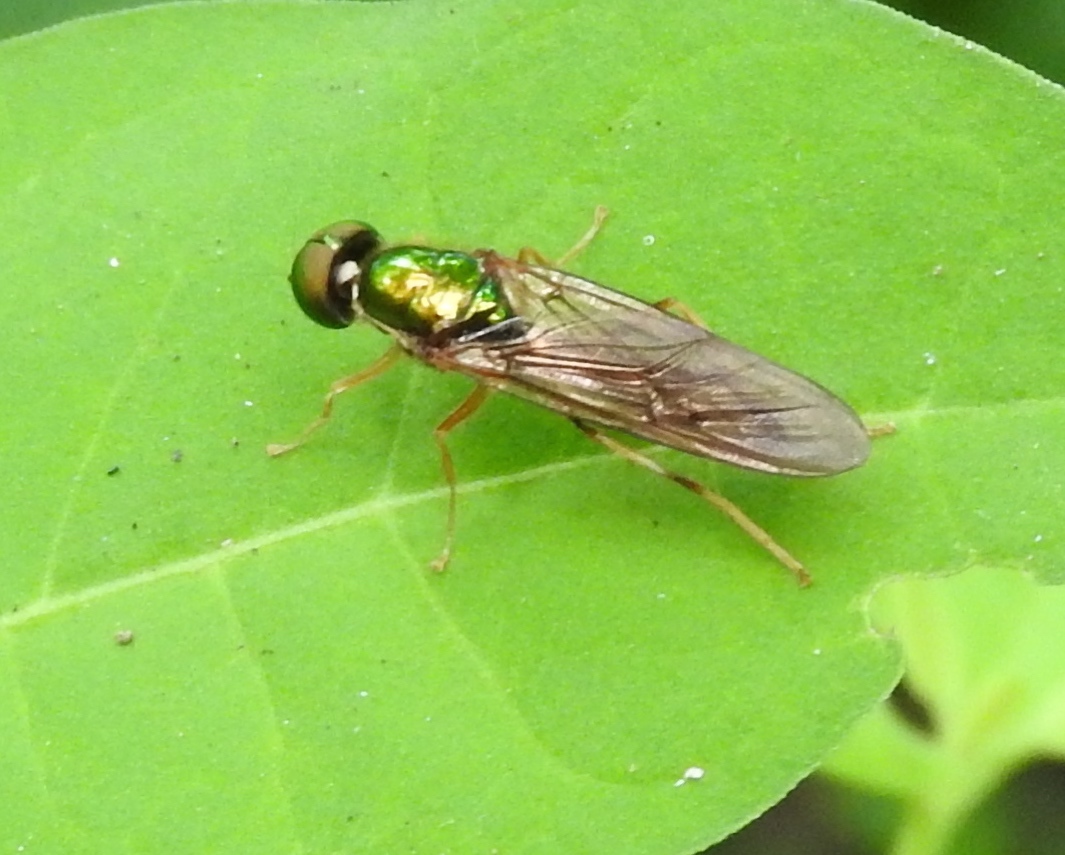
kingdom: Animalia
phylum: Arthropoda
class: Insecta
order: Diptera
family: Stratiomyidae
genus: Sargus
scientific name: Sargus
